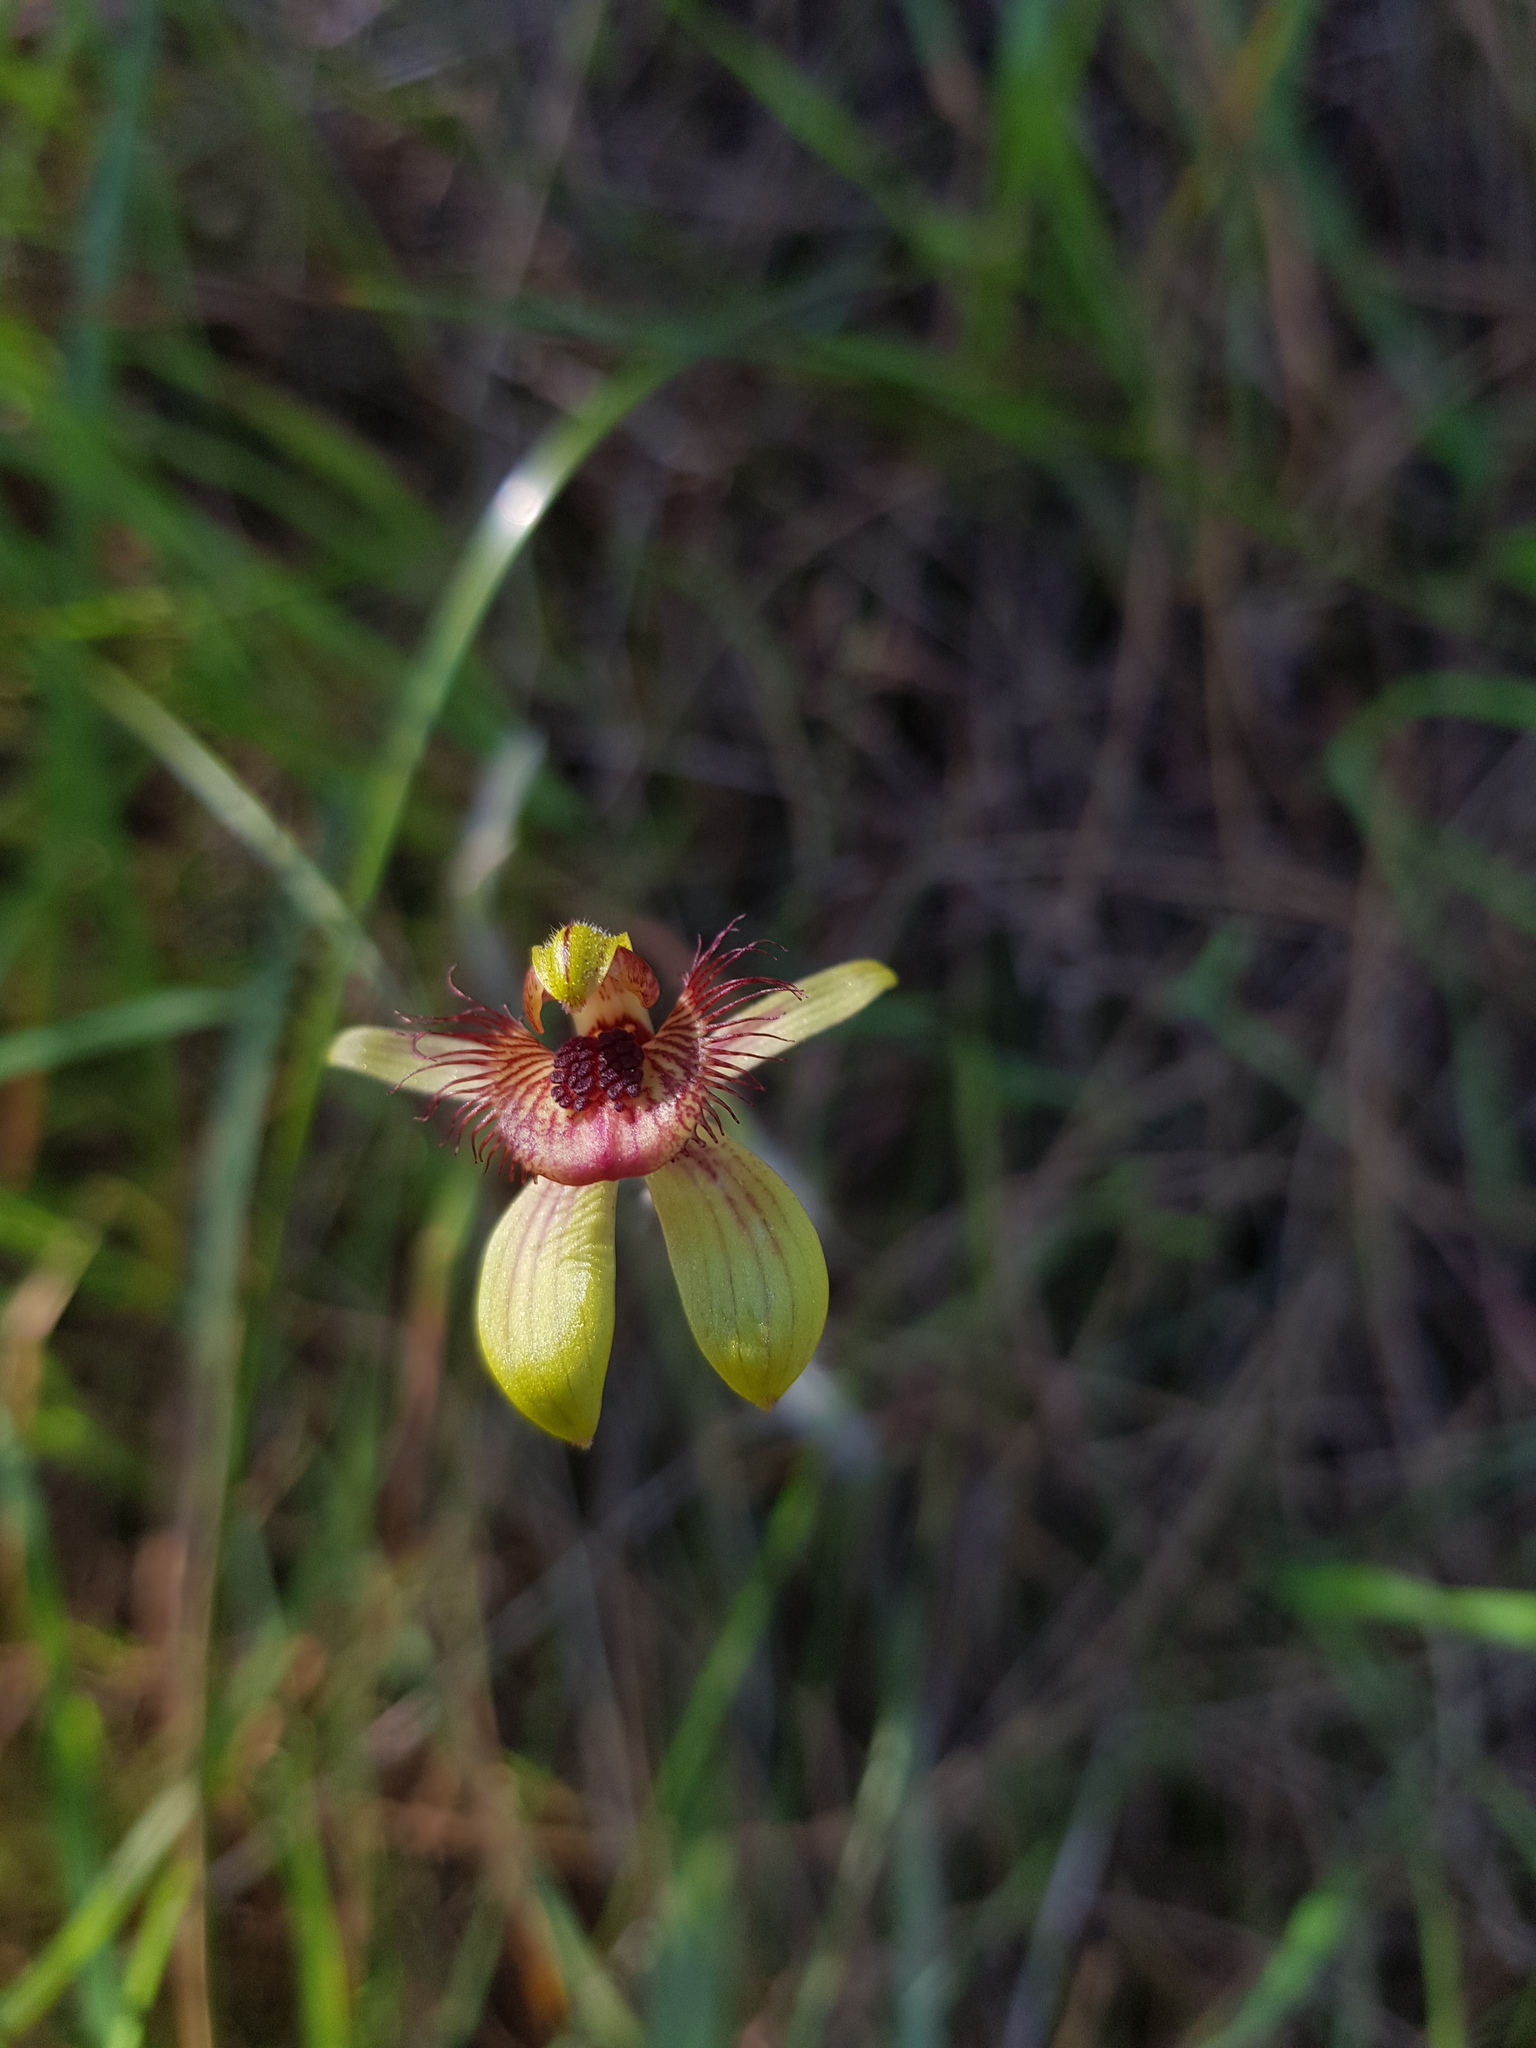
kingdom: Plantae
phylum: Tracheophyta
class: Liliopsida
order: Asparagales
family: Orchidaceae
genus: Caladenia
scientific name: Caladenia discoidea
